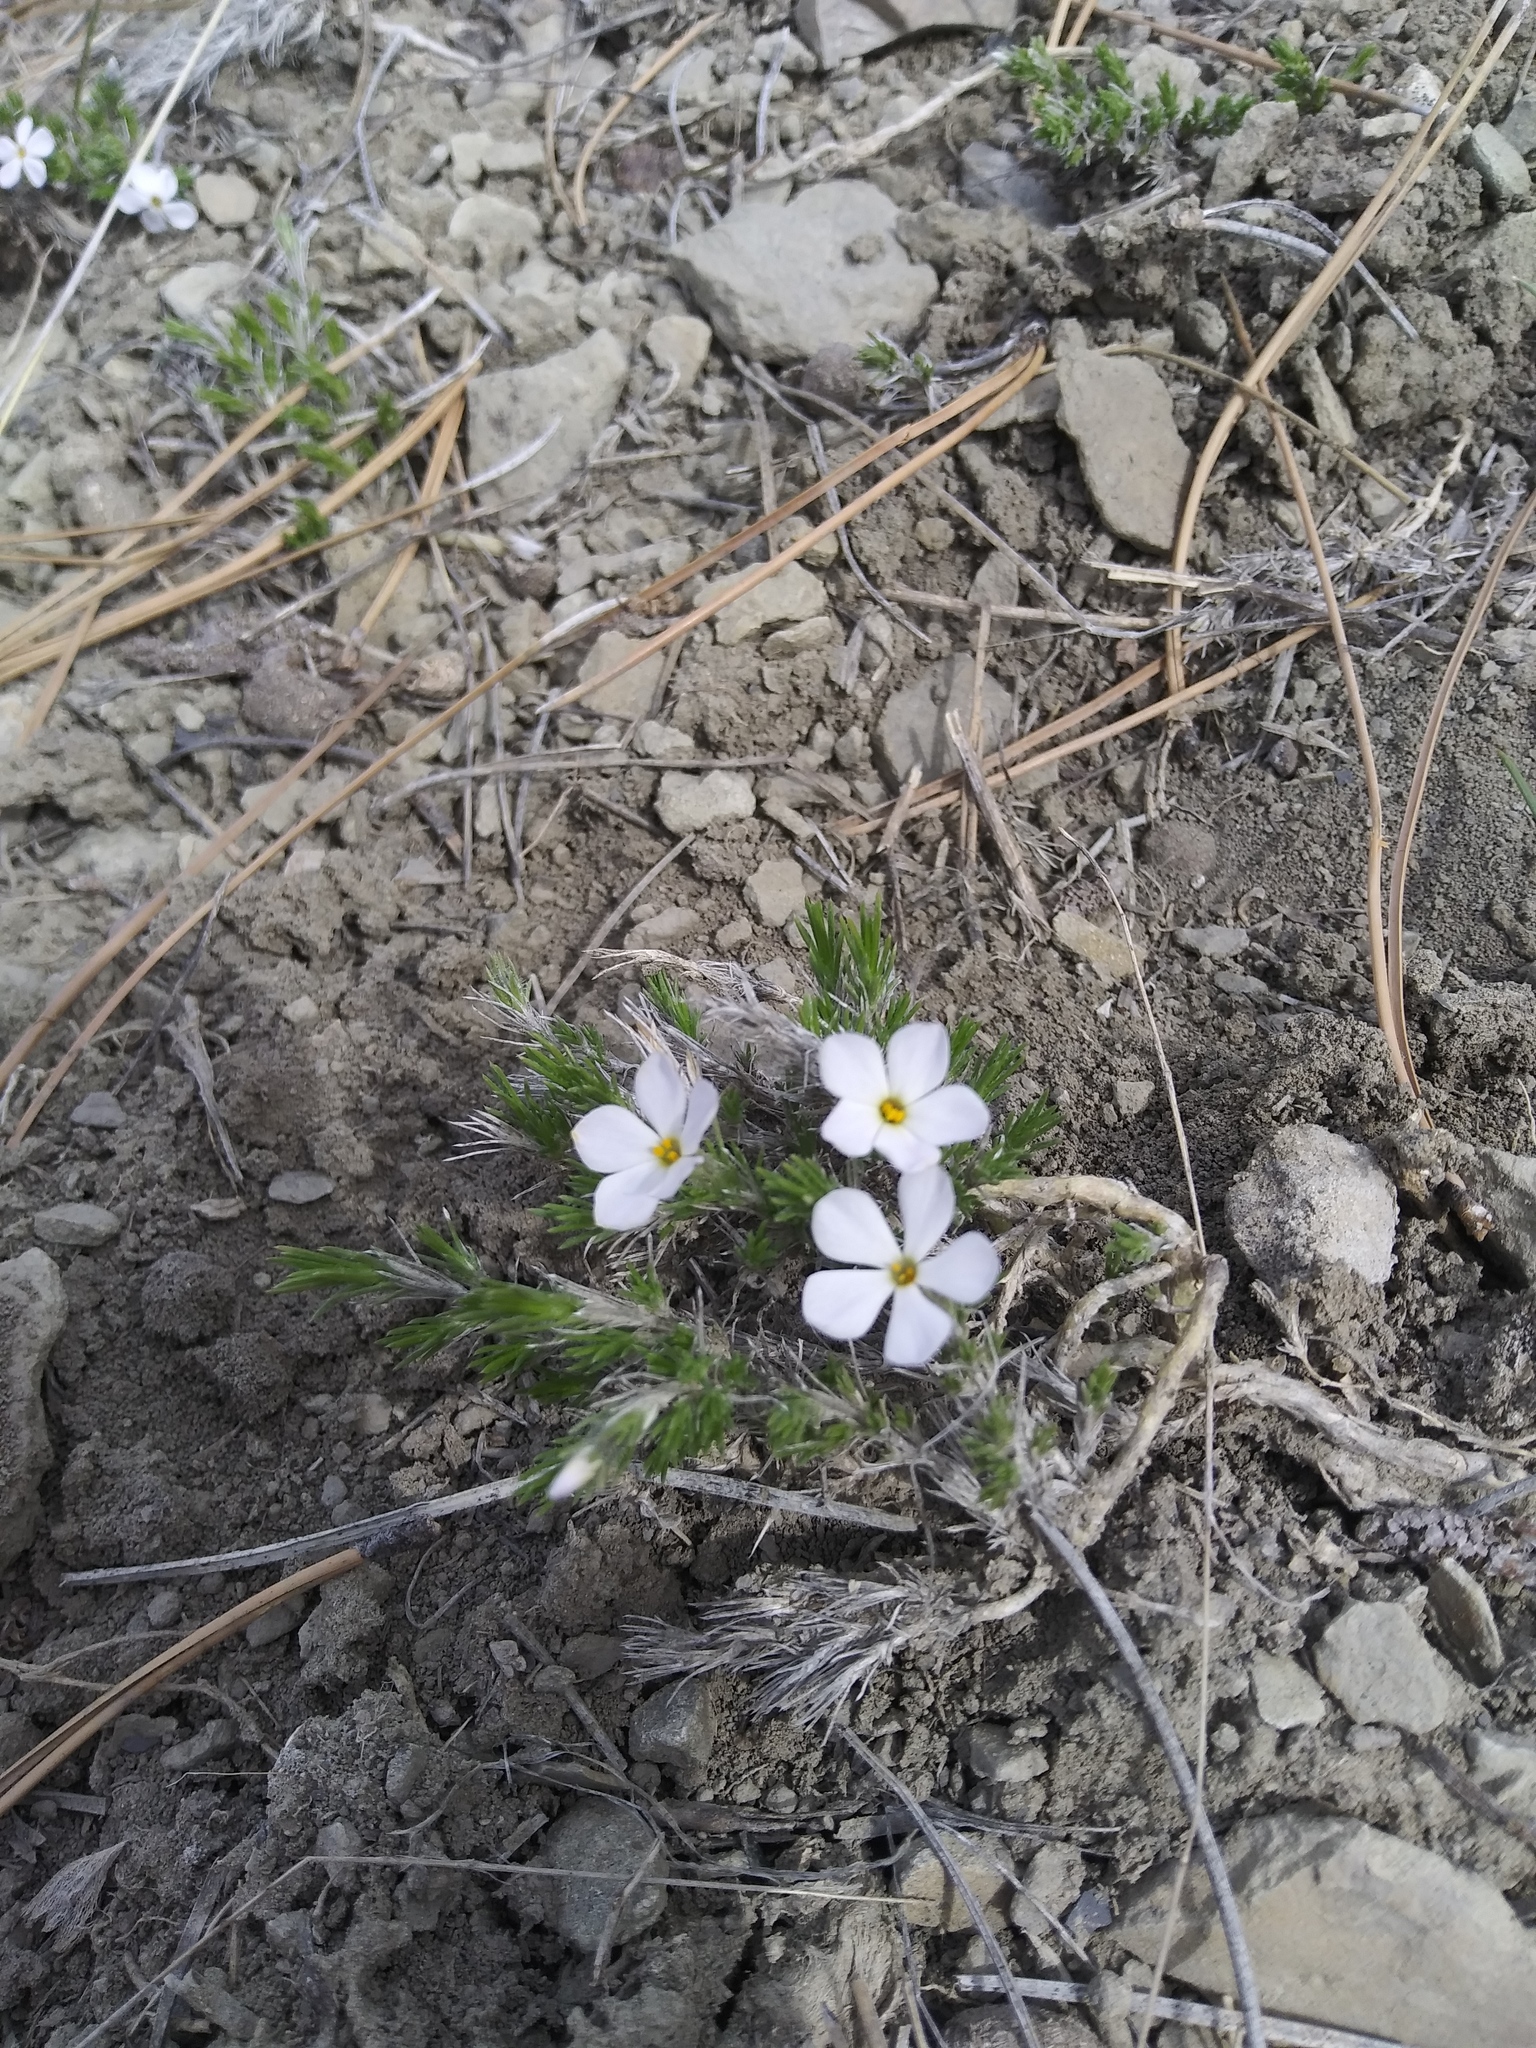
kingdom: Plantae
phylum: Tracheophyta
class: Magnoliopsida
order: Ericales
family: Polemoniaceae
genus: Phlox
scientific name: Phlox hoodii
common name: Moss phlox
